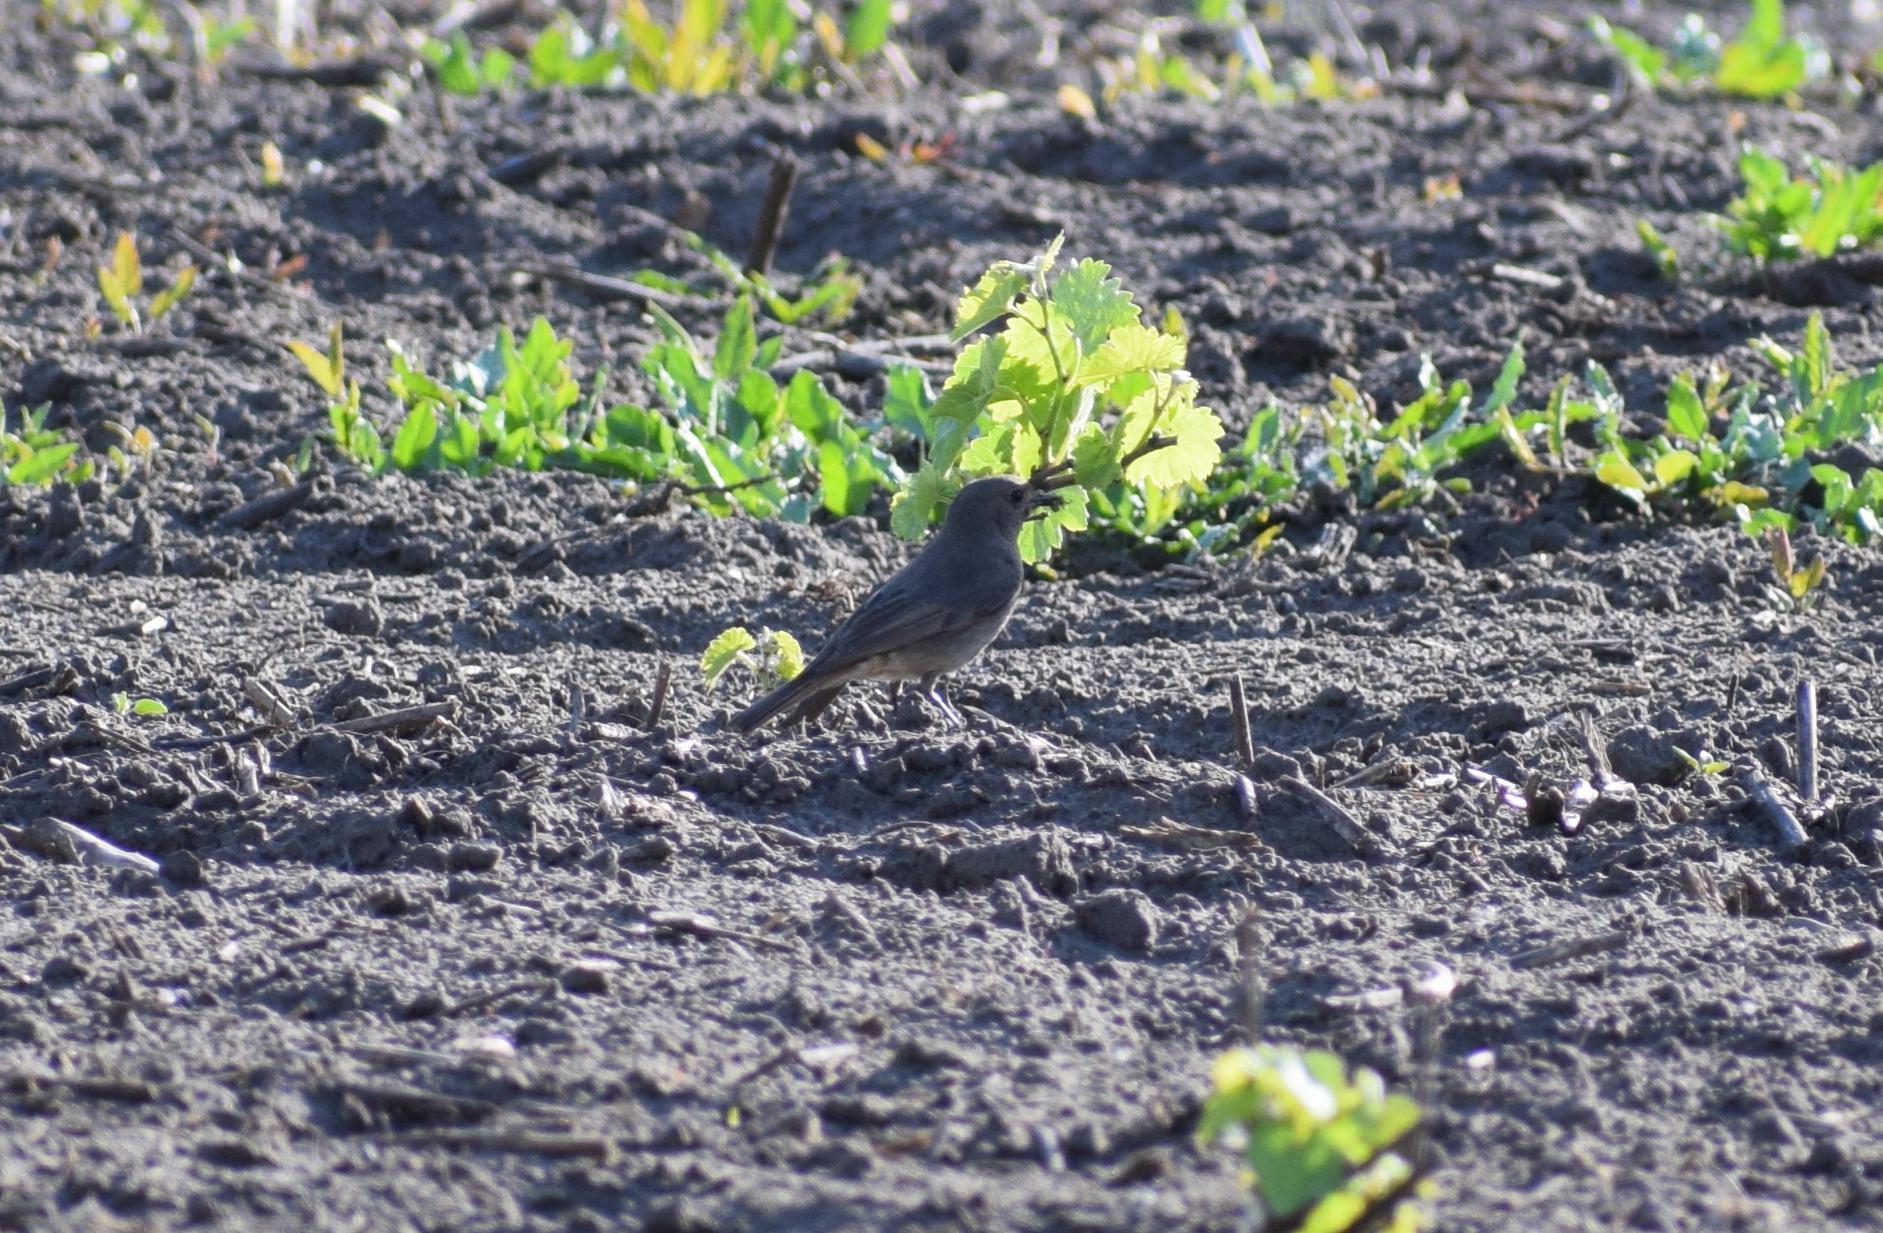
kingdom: Animalia
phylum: Chordata
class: Aves
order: Passeriformes
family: Muscicapidae
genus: Phoenicurus
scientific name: Phoenicurus ochruros
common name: Black redstart
